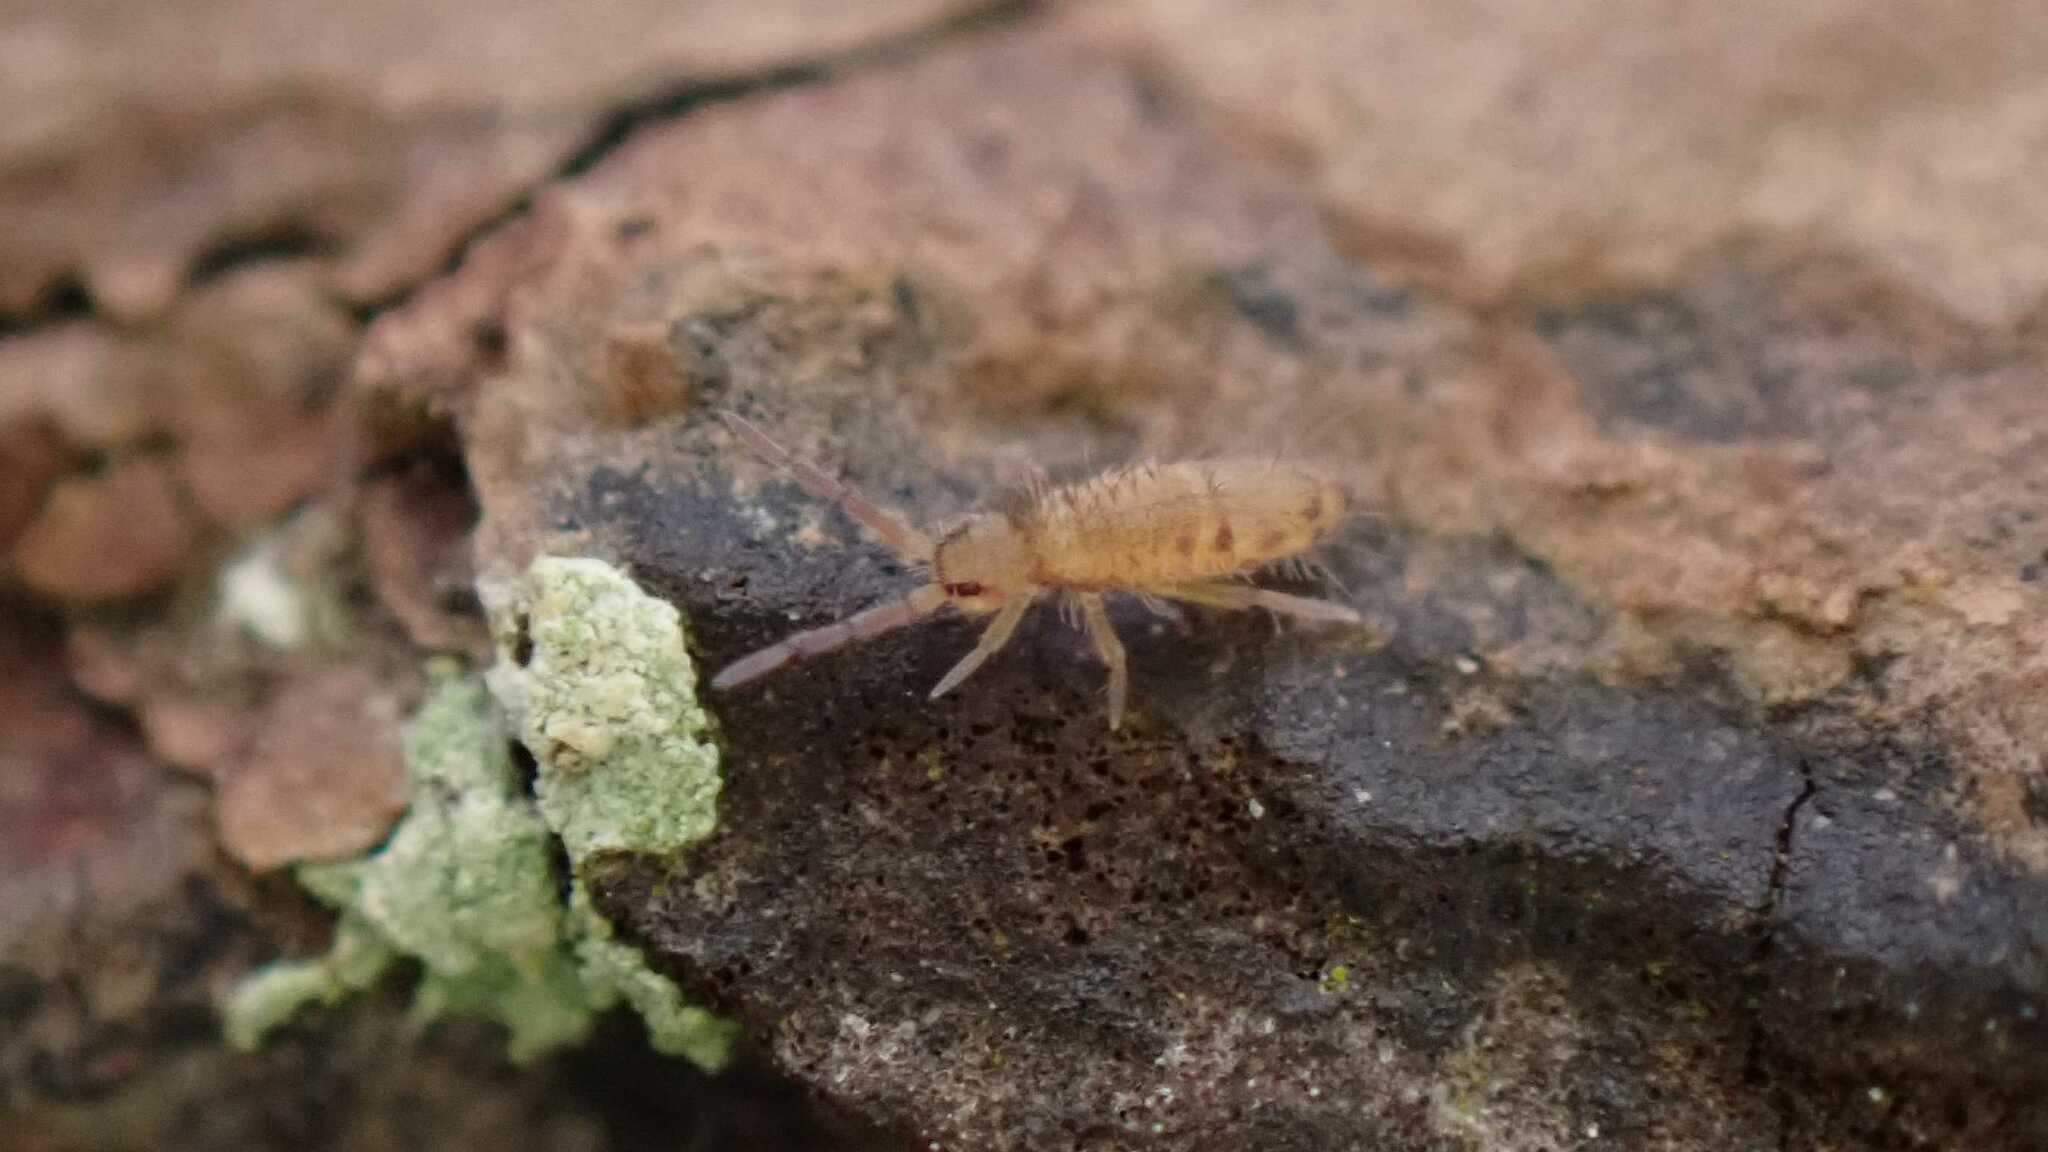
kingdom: Animalia
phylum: Arthropoda
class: Collembola
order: Entomobryomorpha
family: Entomobryidae
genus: Entomobrya
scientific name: Entomobrya multifasciata
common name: Springtail
